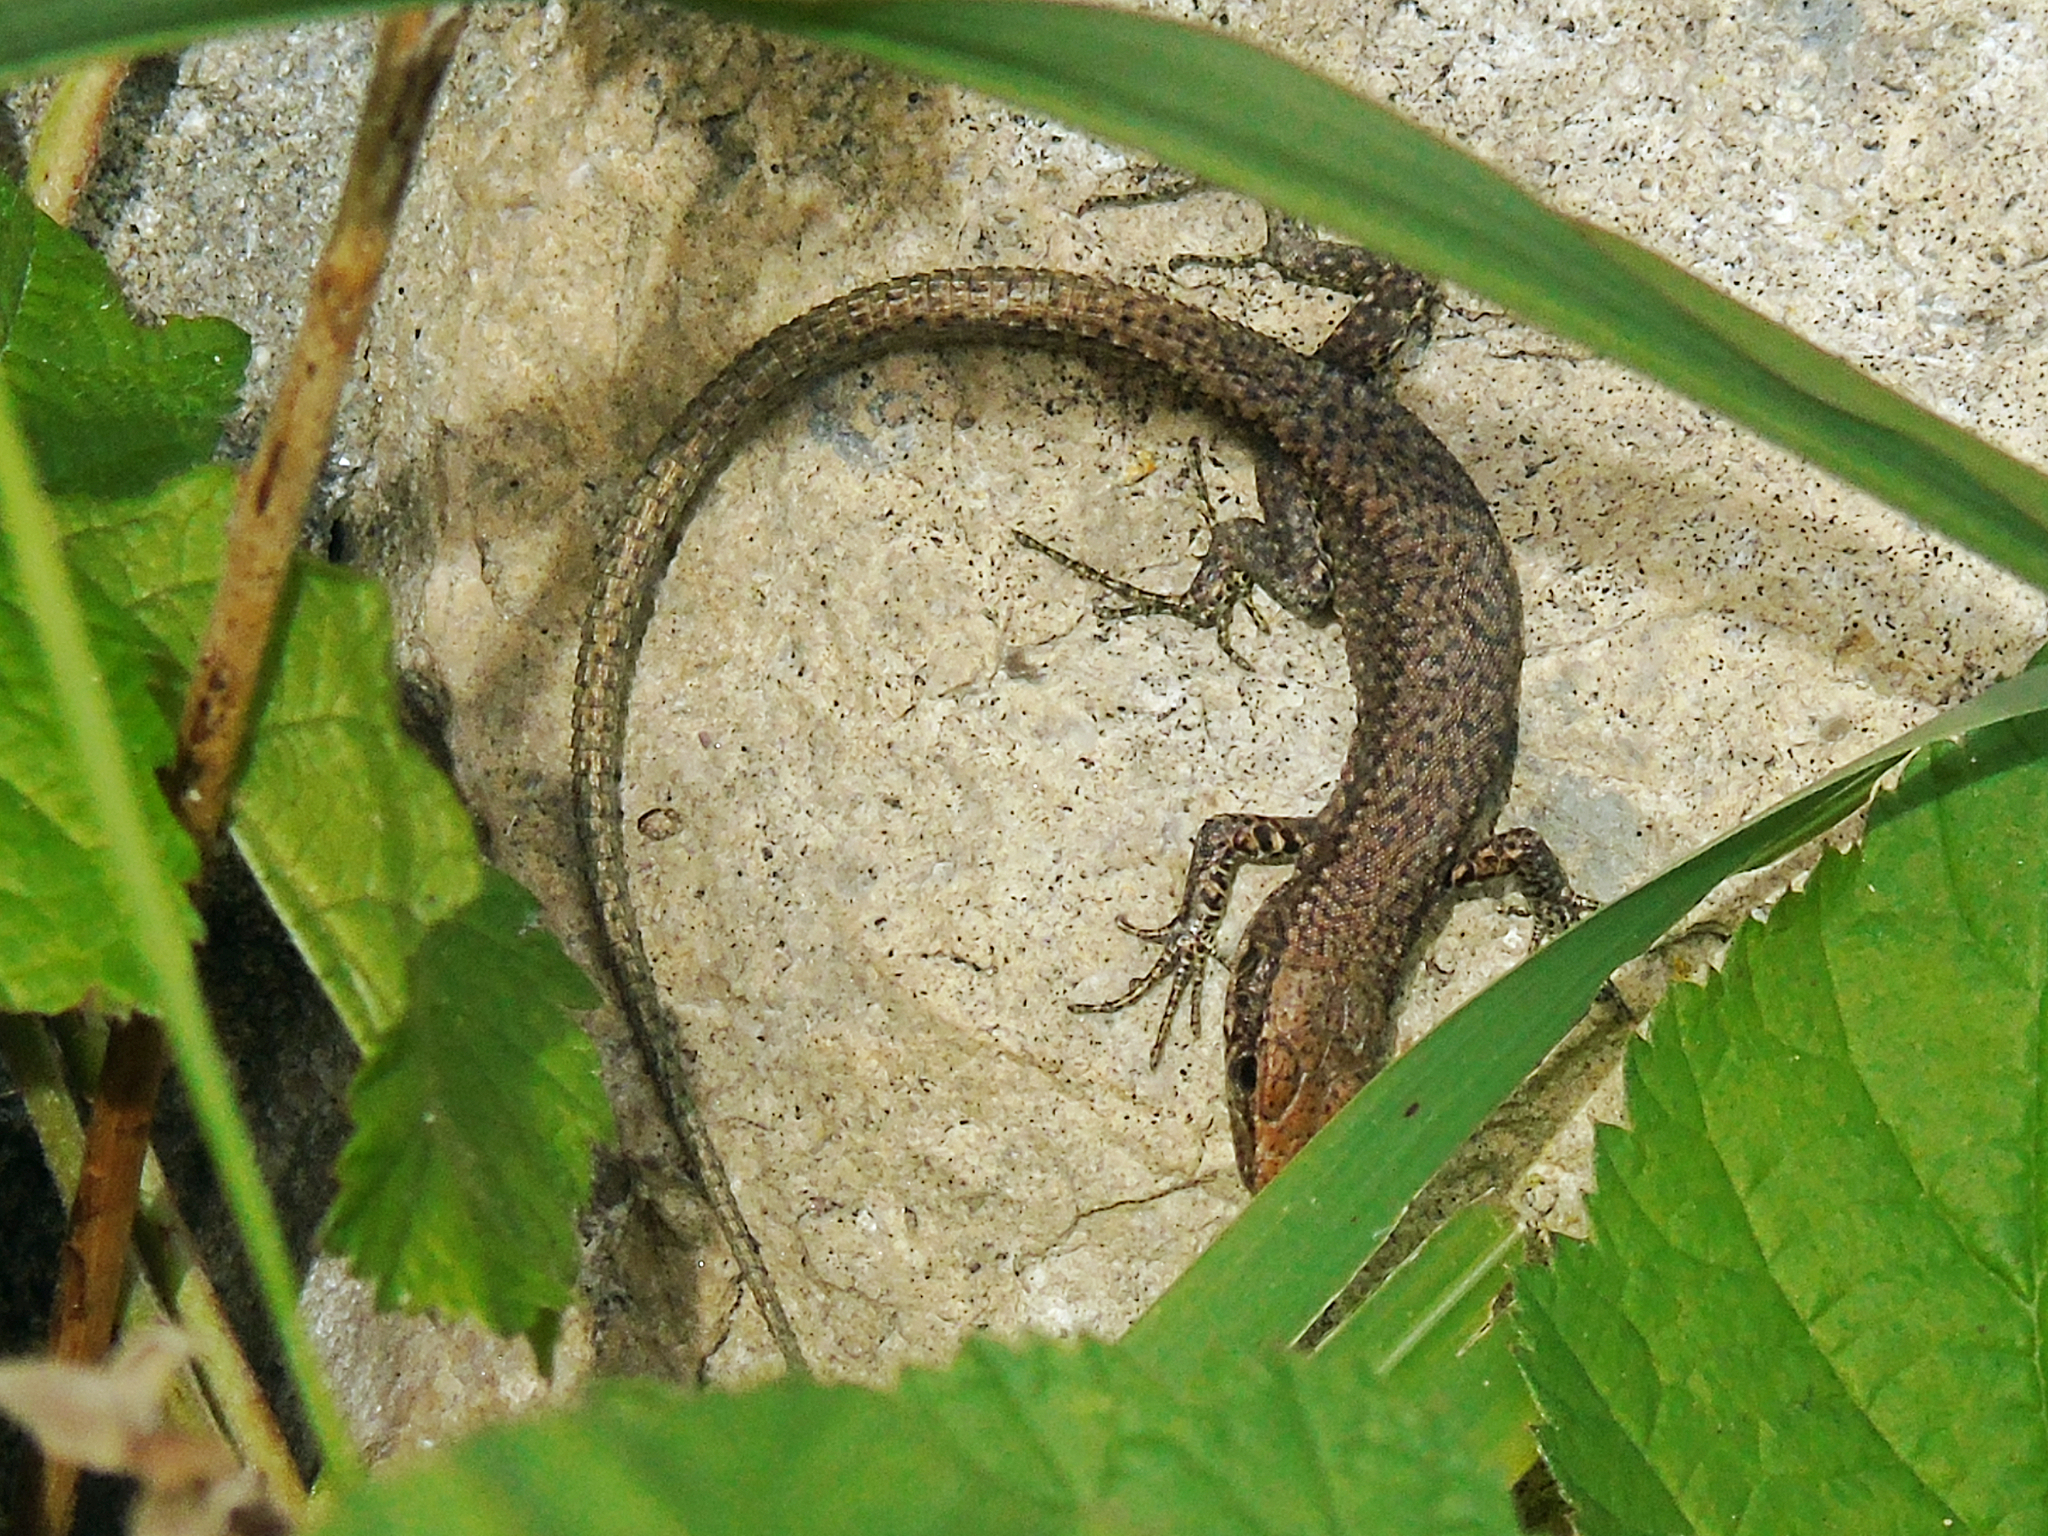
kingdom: Animalia
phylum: Chordata
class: Squamata
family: Lacertidae
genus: Darevskia
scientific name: Darevskia rudis
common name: Spiny-tailed lizard
